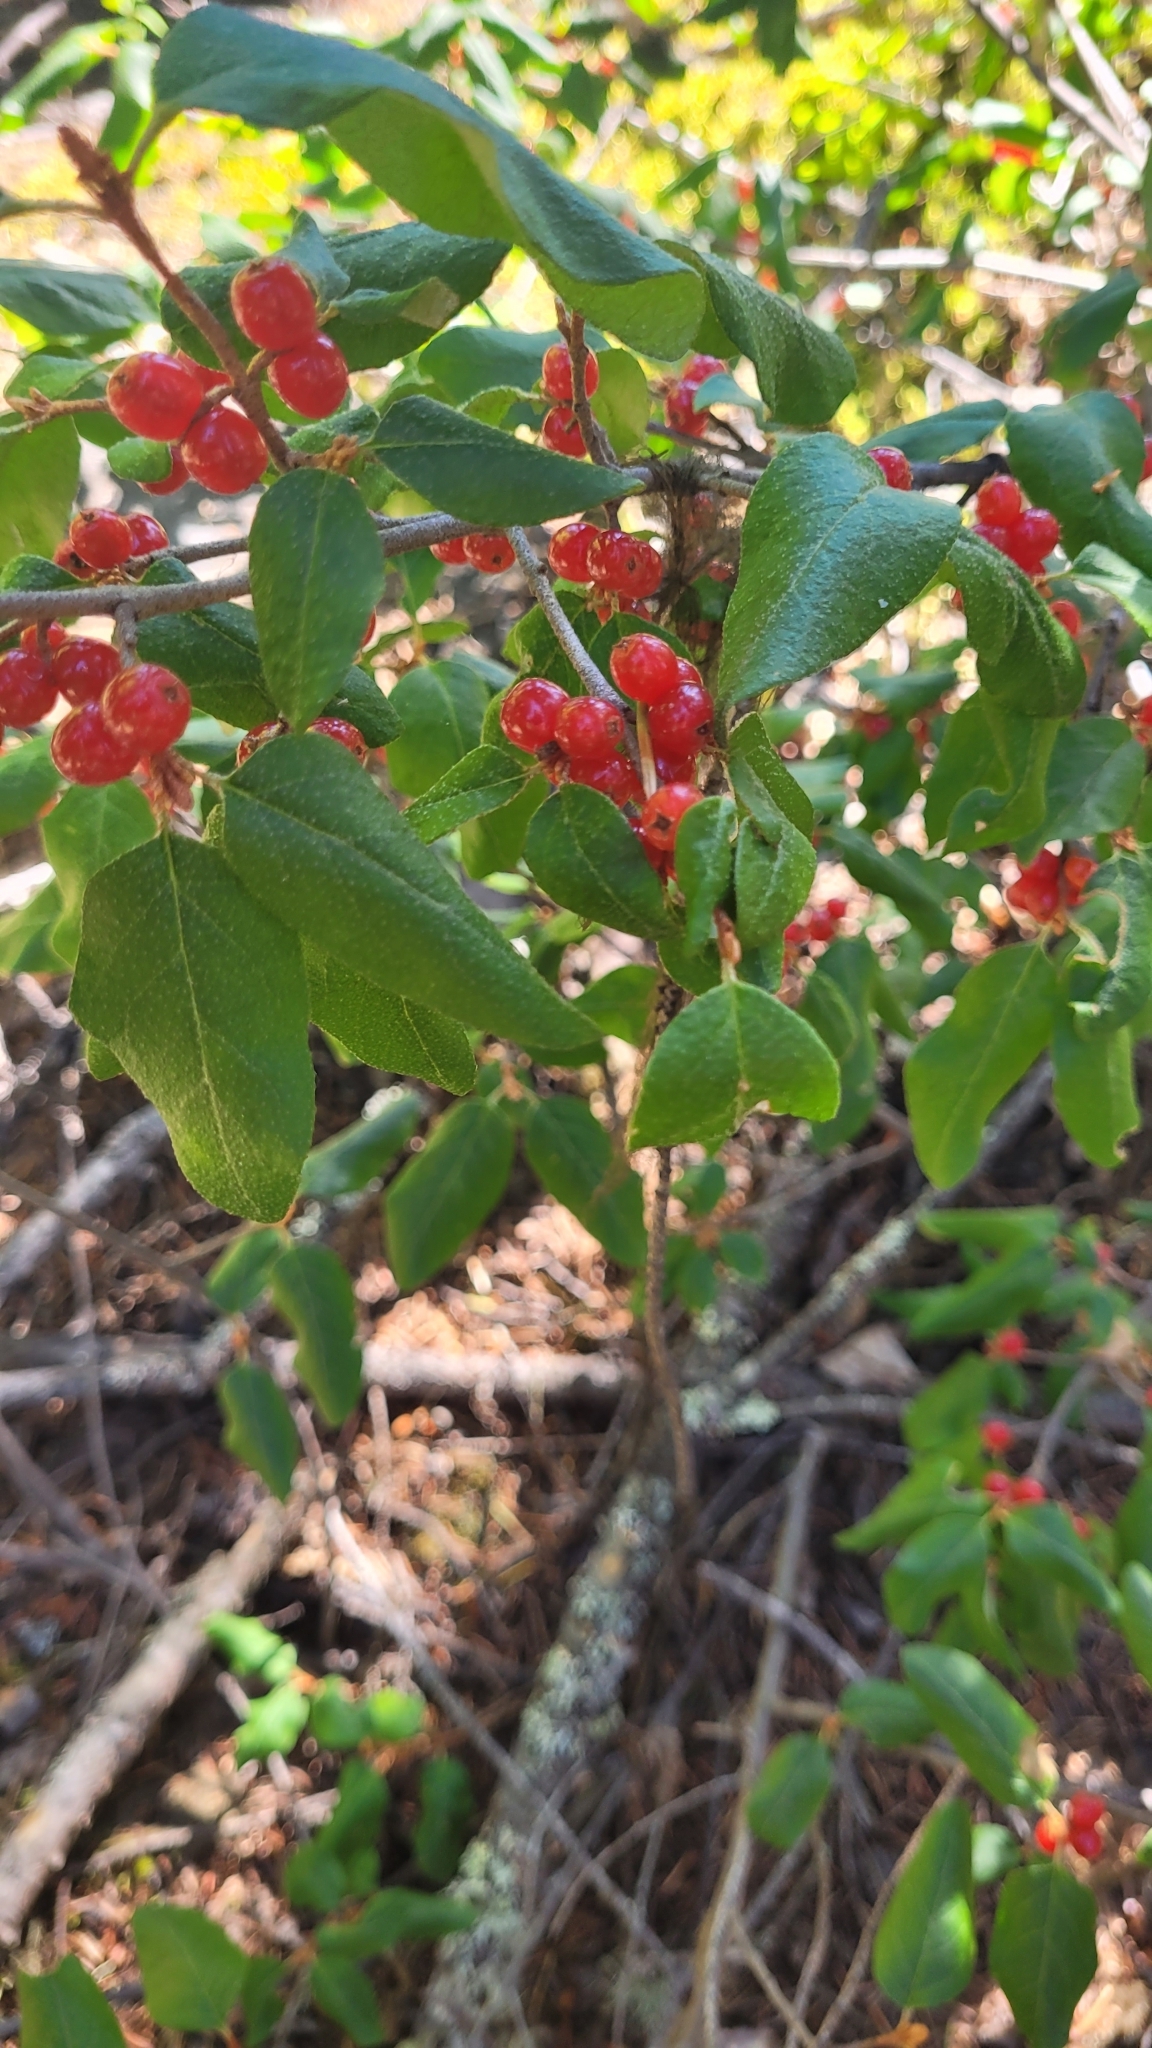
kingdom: Plantae
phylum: Tracheophyta
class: Magnoliopsida
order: Rosales
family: Elaeagnaceae
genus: Shepherdia
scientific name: Shepherdia canadensis
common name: Soapberry
